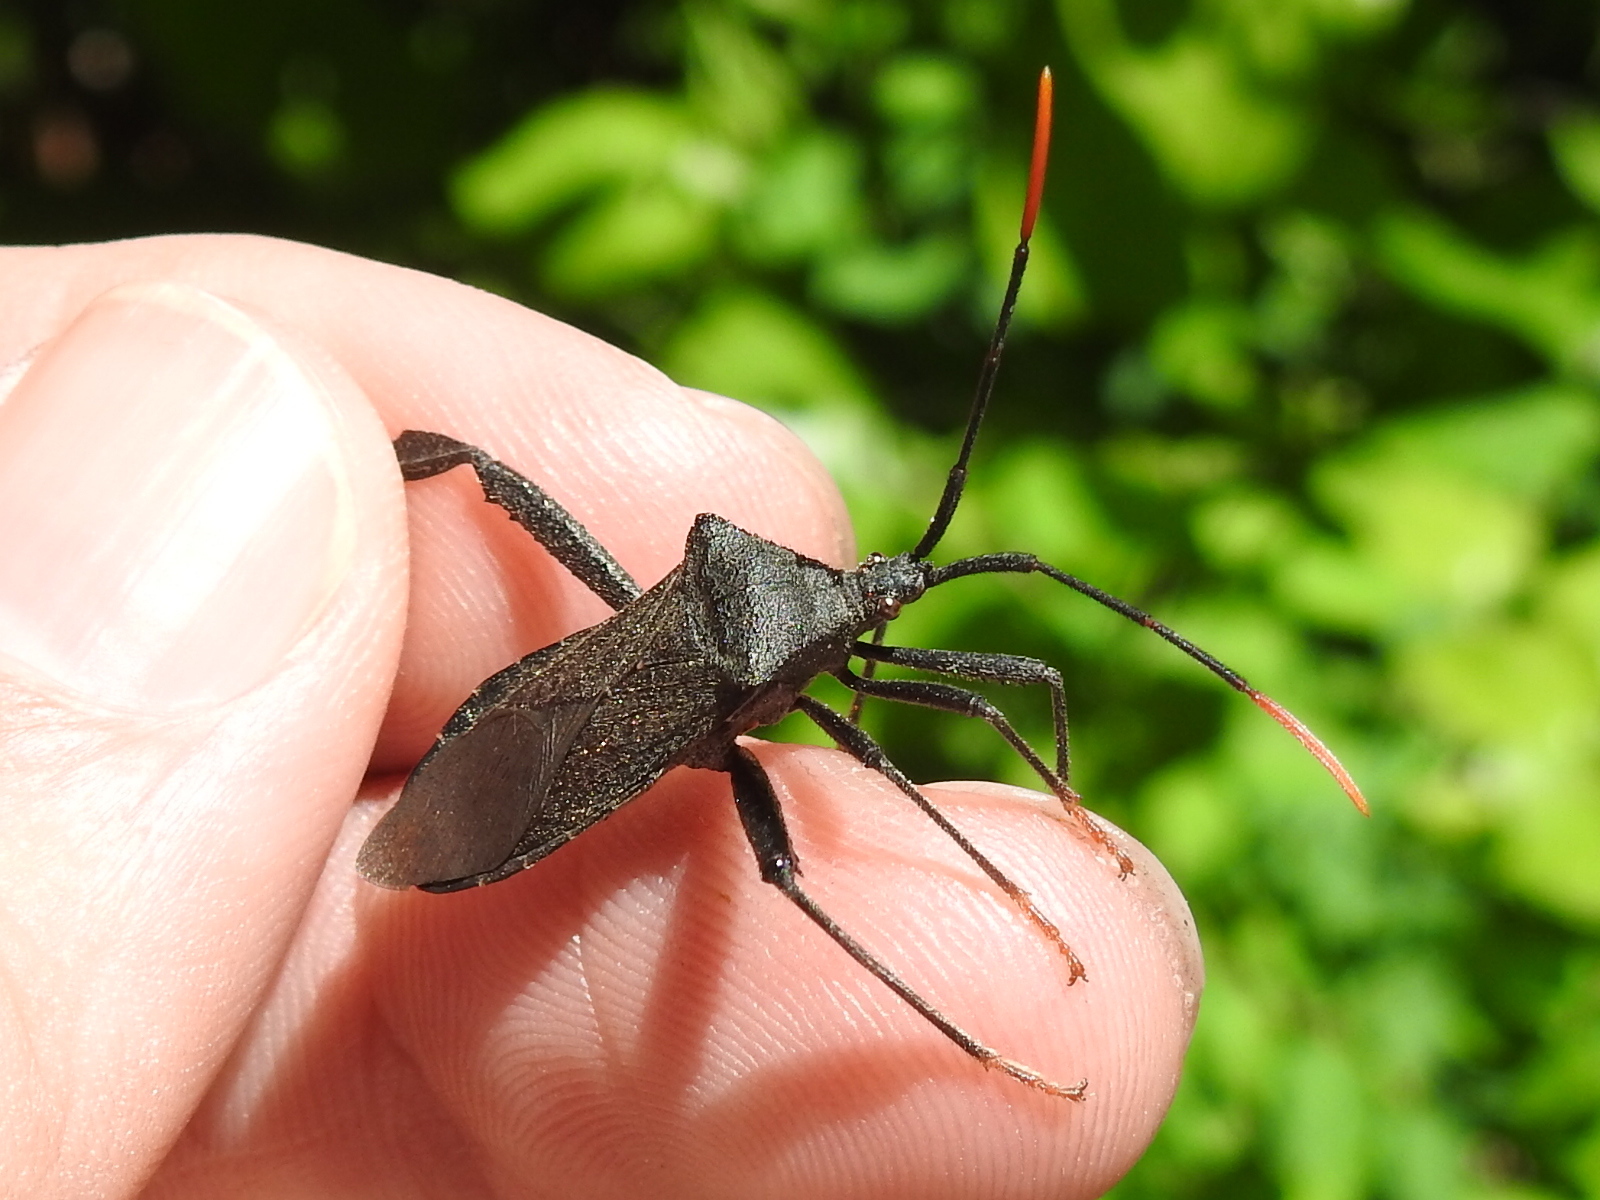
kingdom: Animalia
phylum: Arthropoda
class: Insecta
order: Hemiptera
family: Coreidae
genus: Acanthocephala
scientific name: Acanthocephala terminalis
